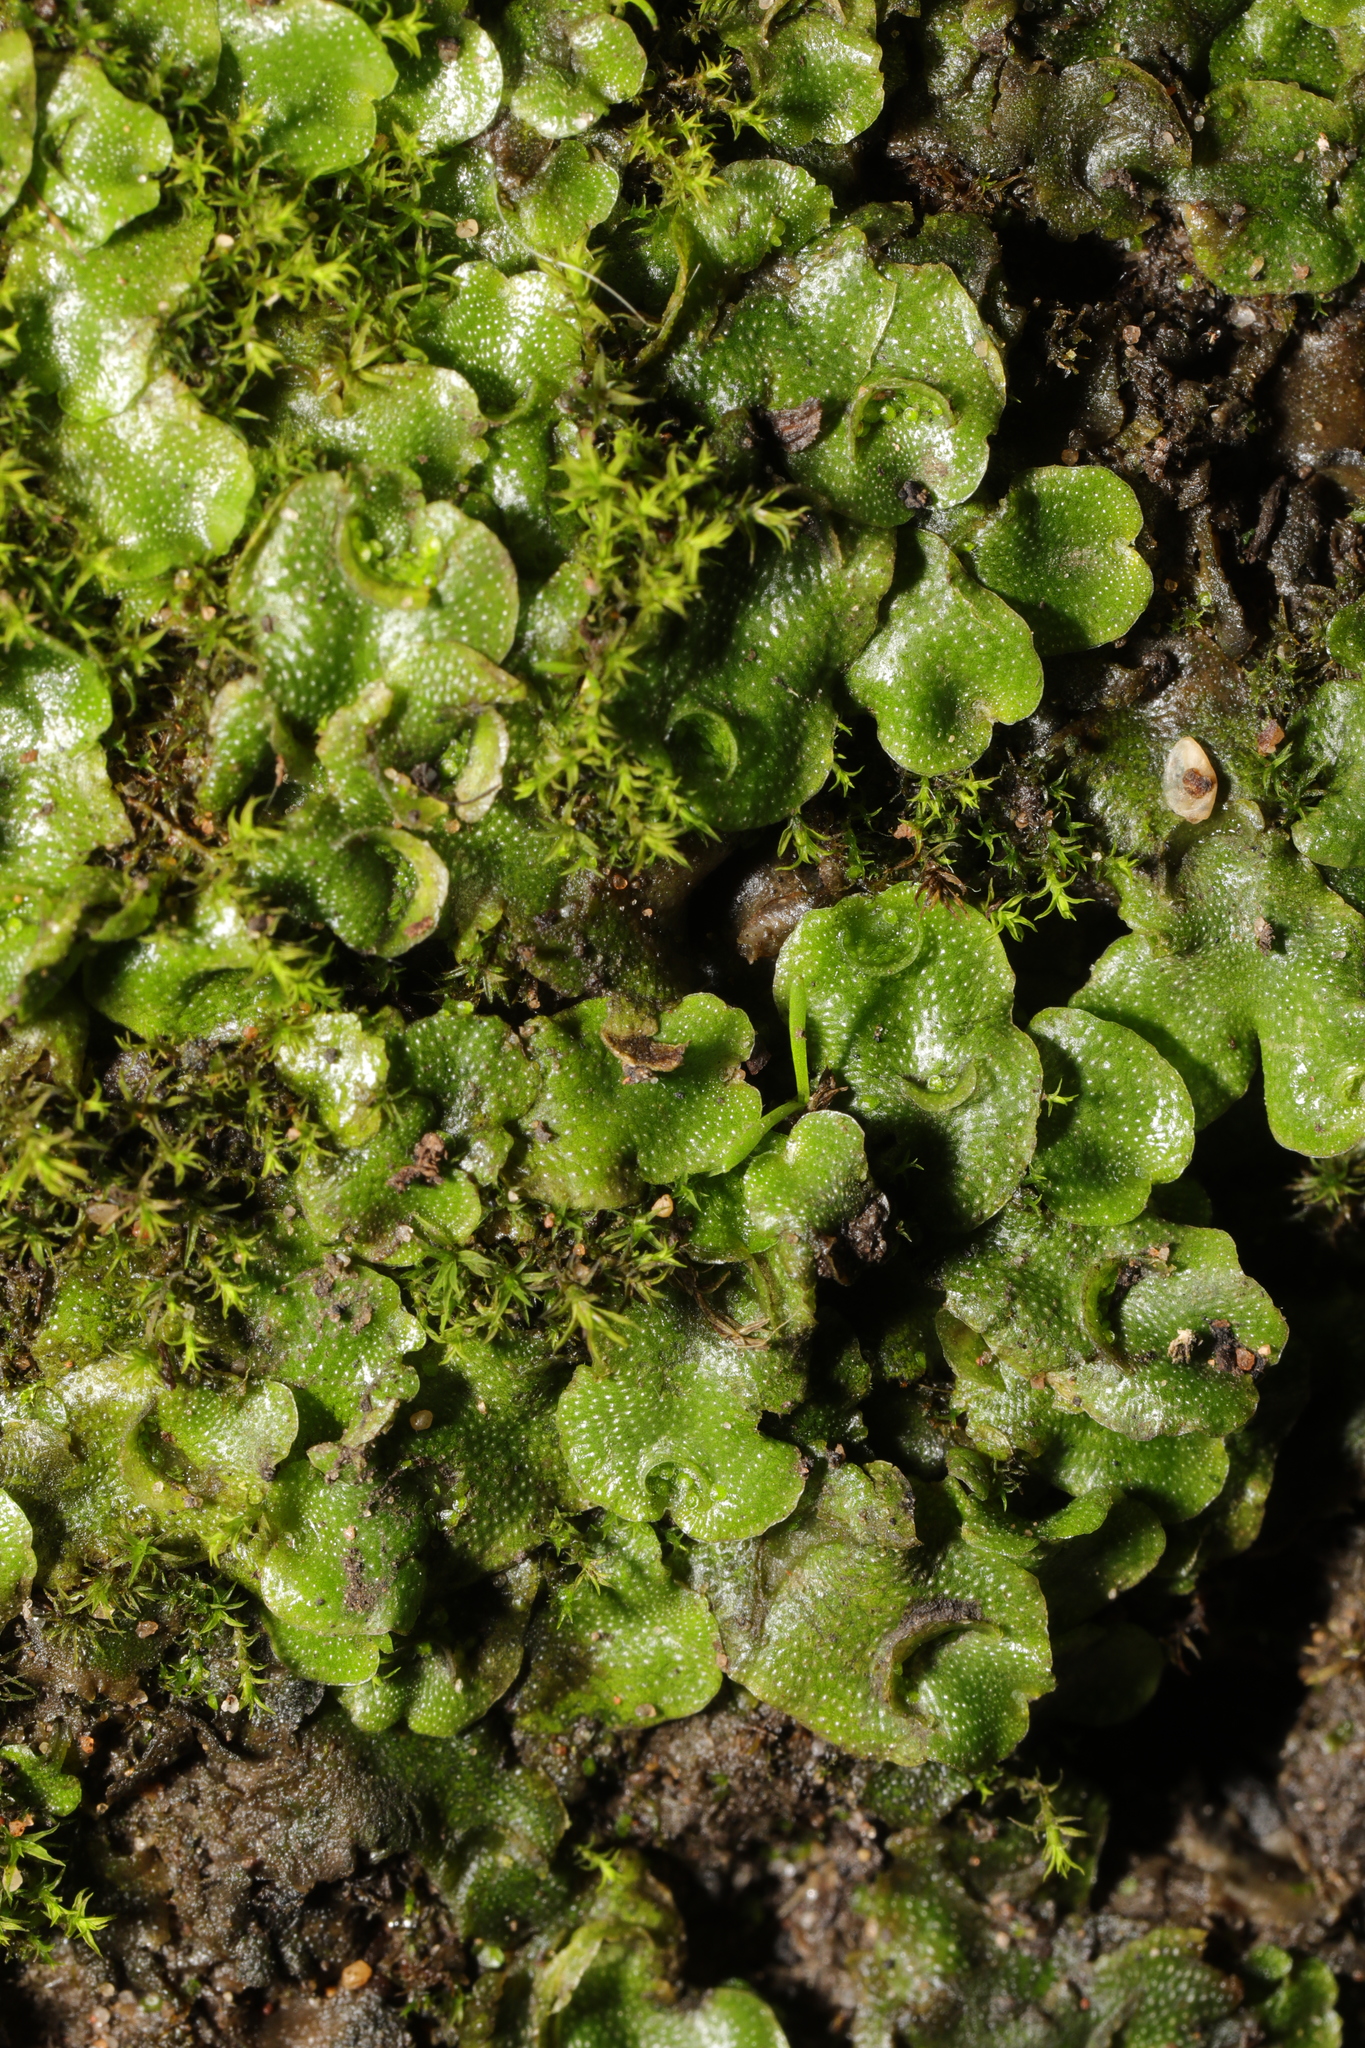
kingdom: Plantae
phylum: Marchantiophyta
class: Marchantiopsida
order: Lunulariales
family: Lunulariaceae
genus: Lunularia
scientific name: Lunularia cruciata
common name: Crescent-cup liverwort
